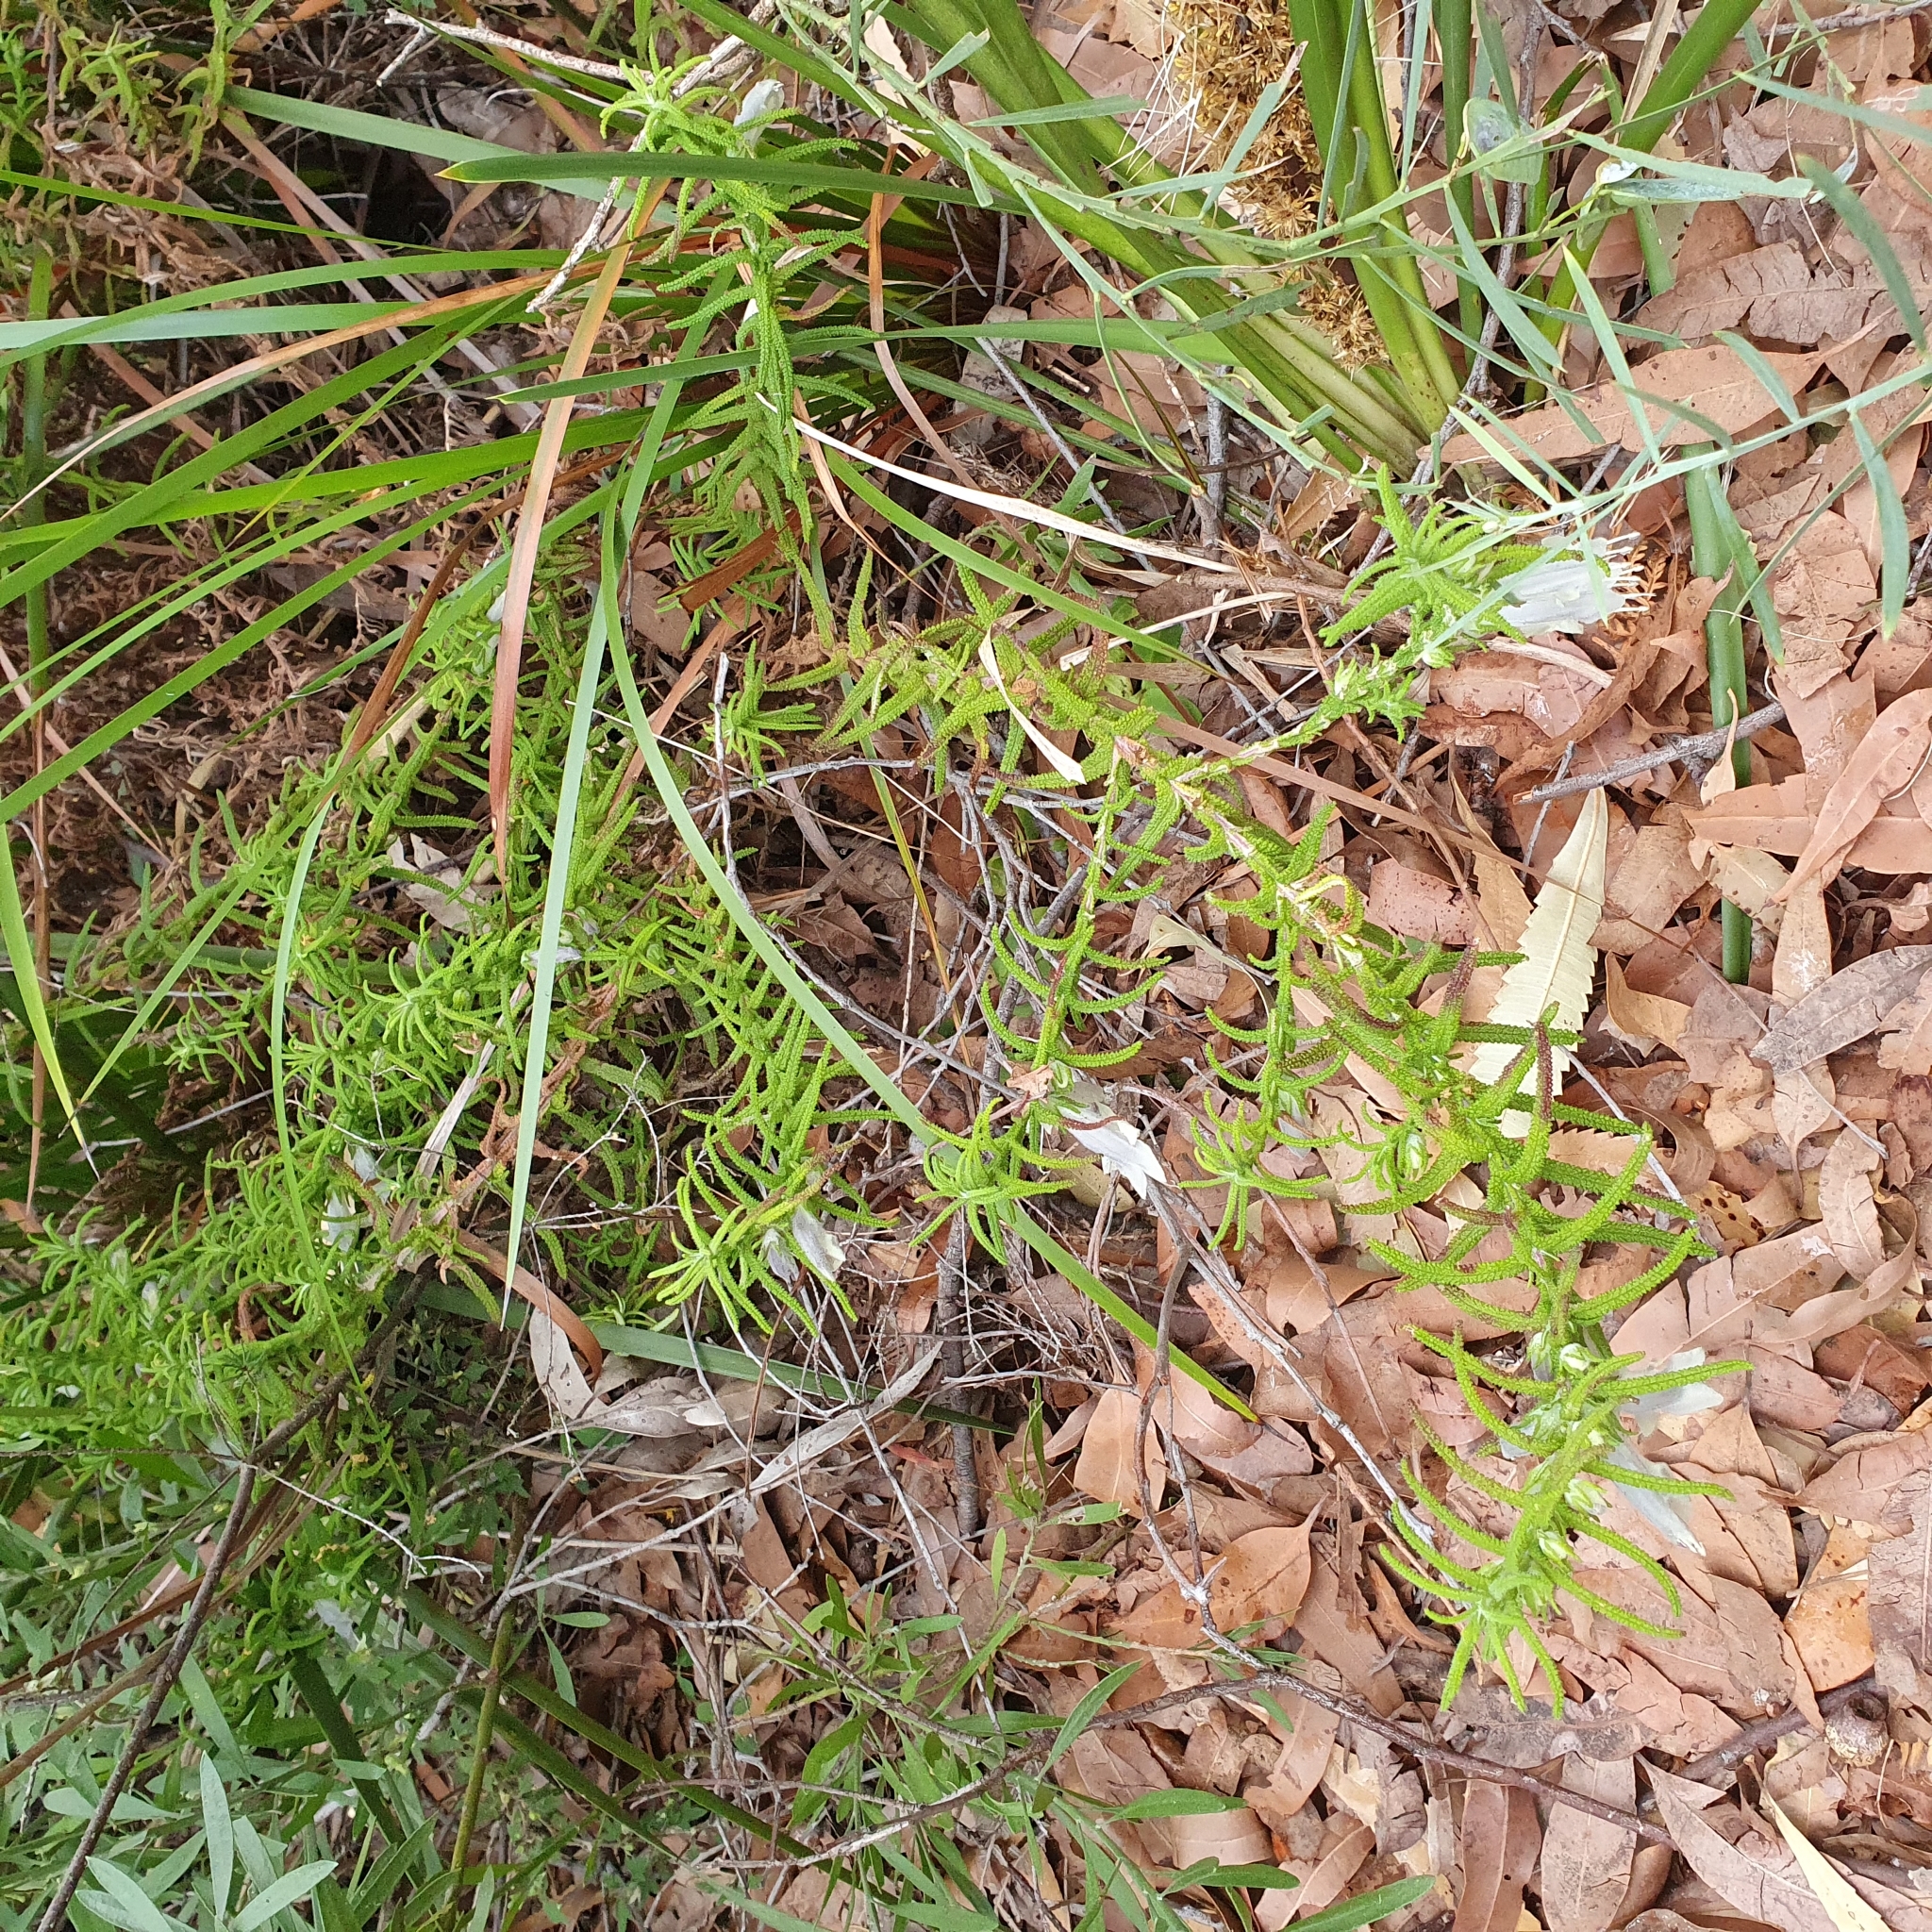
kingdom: Plantae
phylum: Tracheophyta
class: Magnoliopsida
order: Lamiales
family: Lamiaceae
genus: Chloanthes
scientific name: Chloanthes stoechadis
